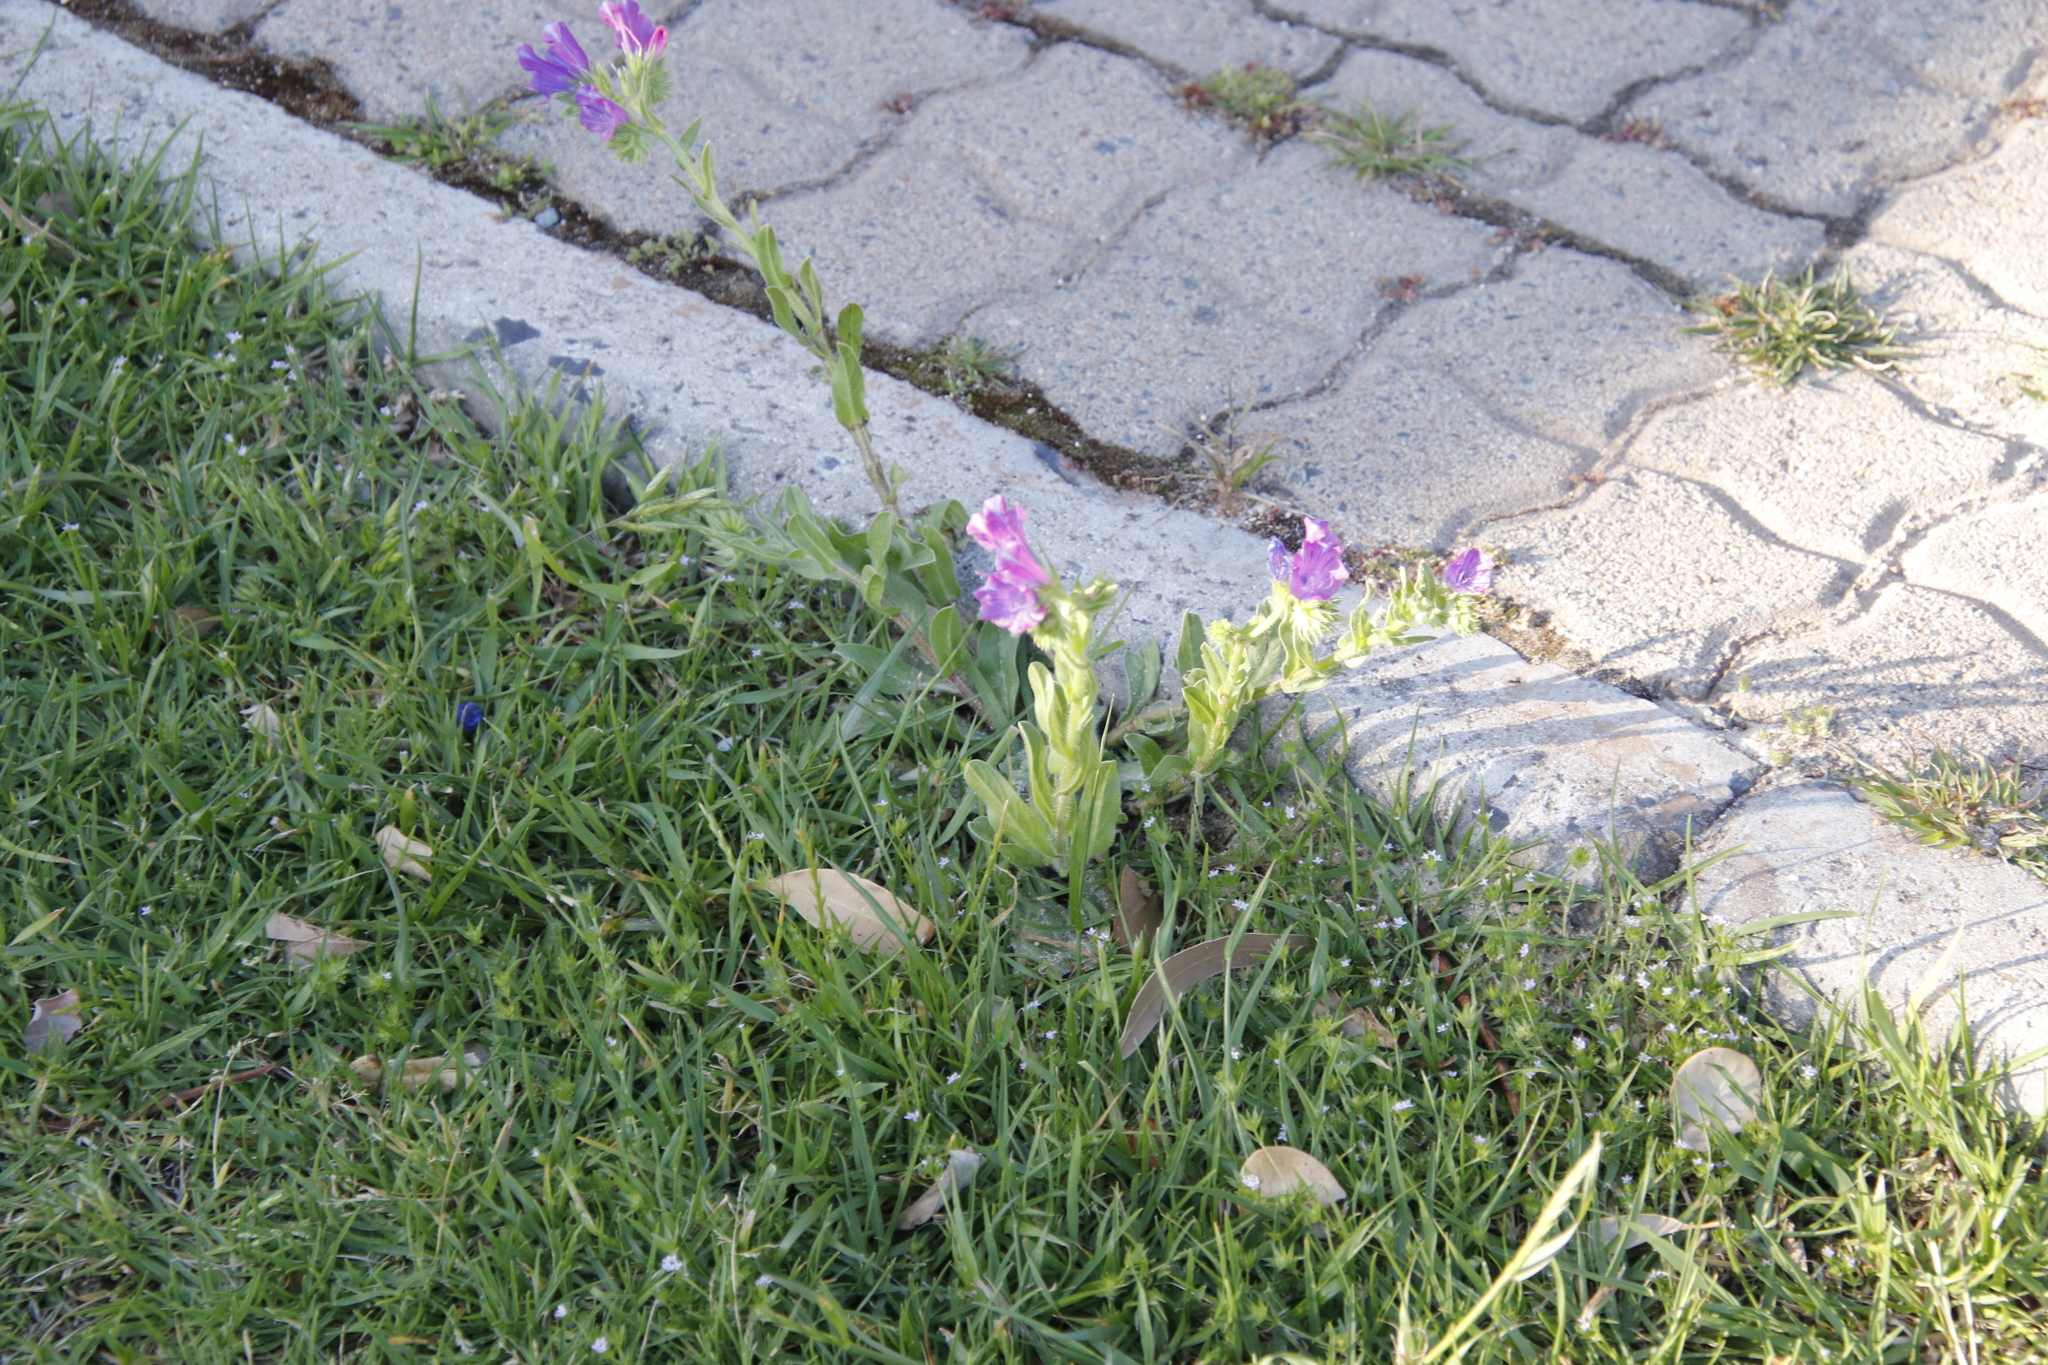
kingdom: Plantae
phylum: Tracheophyta
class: Magnoliopsida
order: Boraginales
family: Boraginaceae
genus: Echium
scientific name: Echium plantagineum
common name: Purple viper's-bugloss
